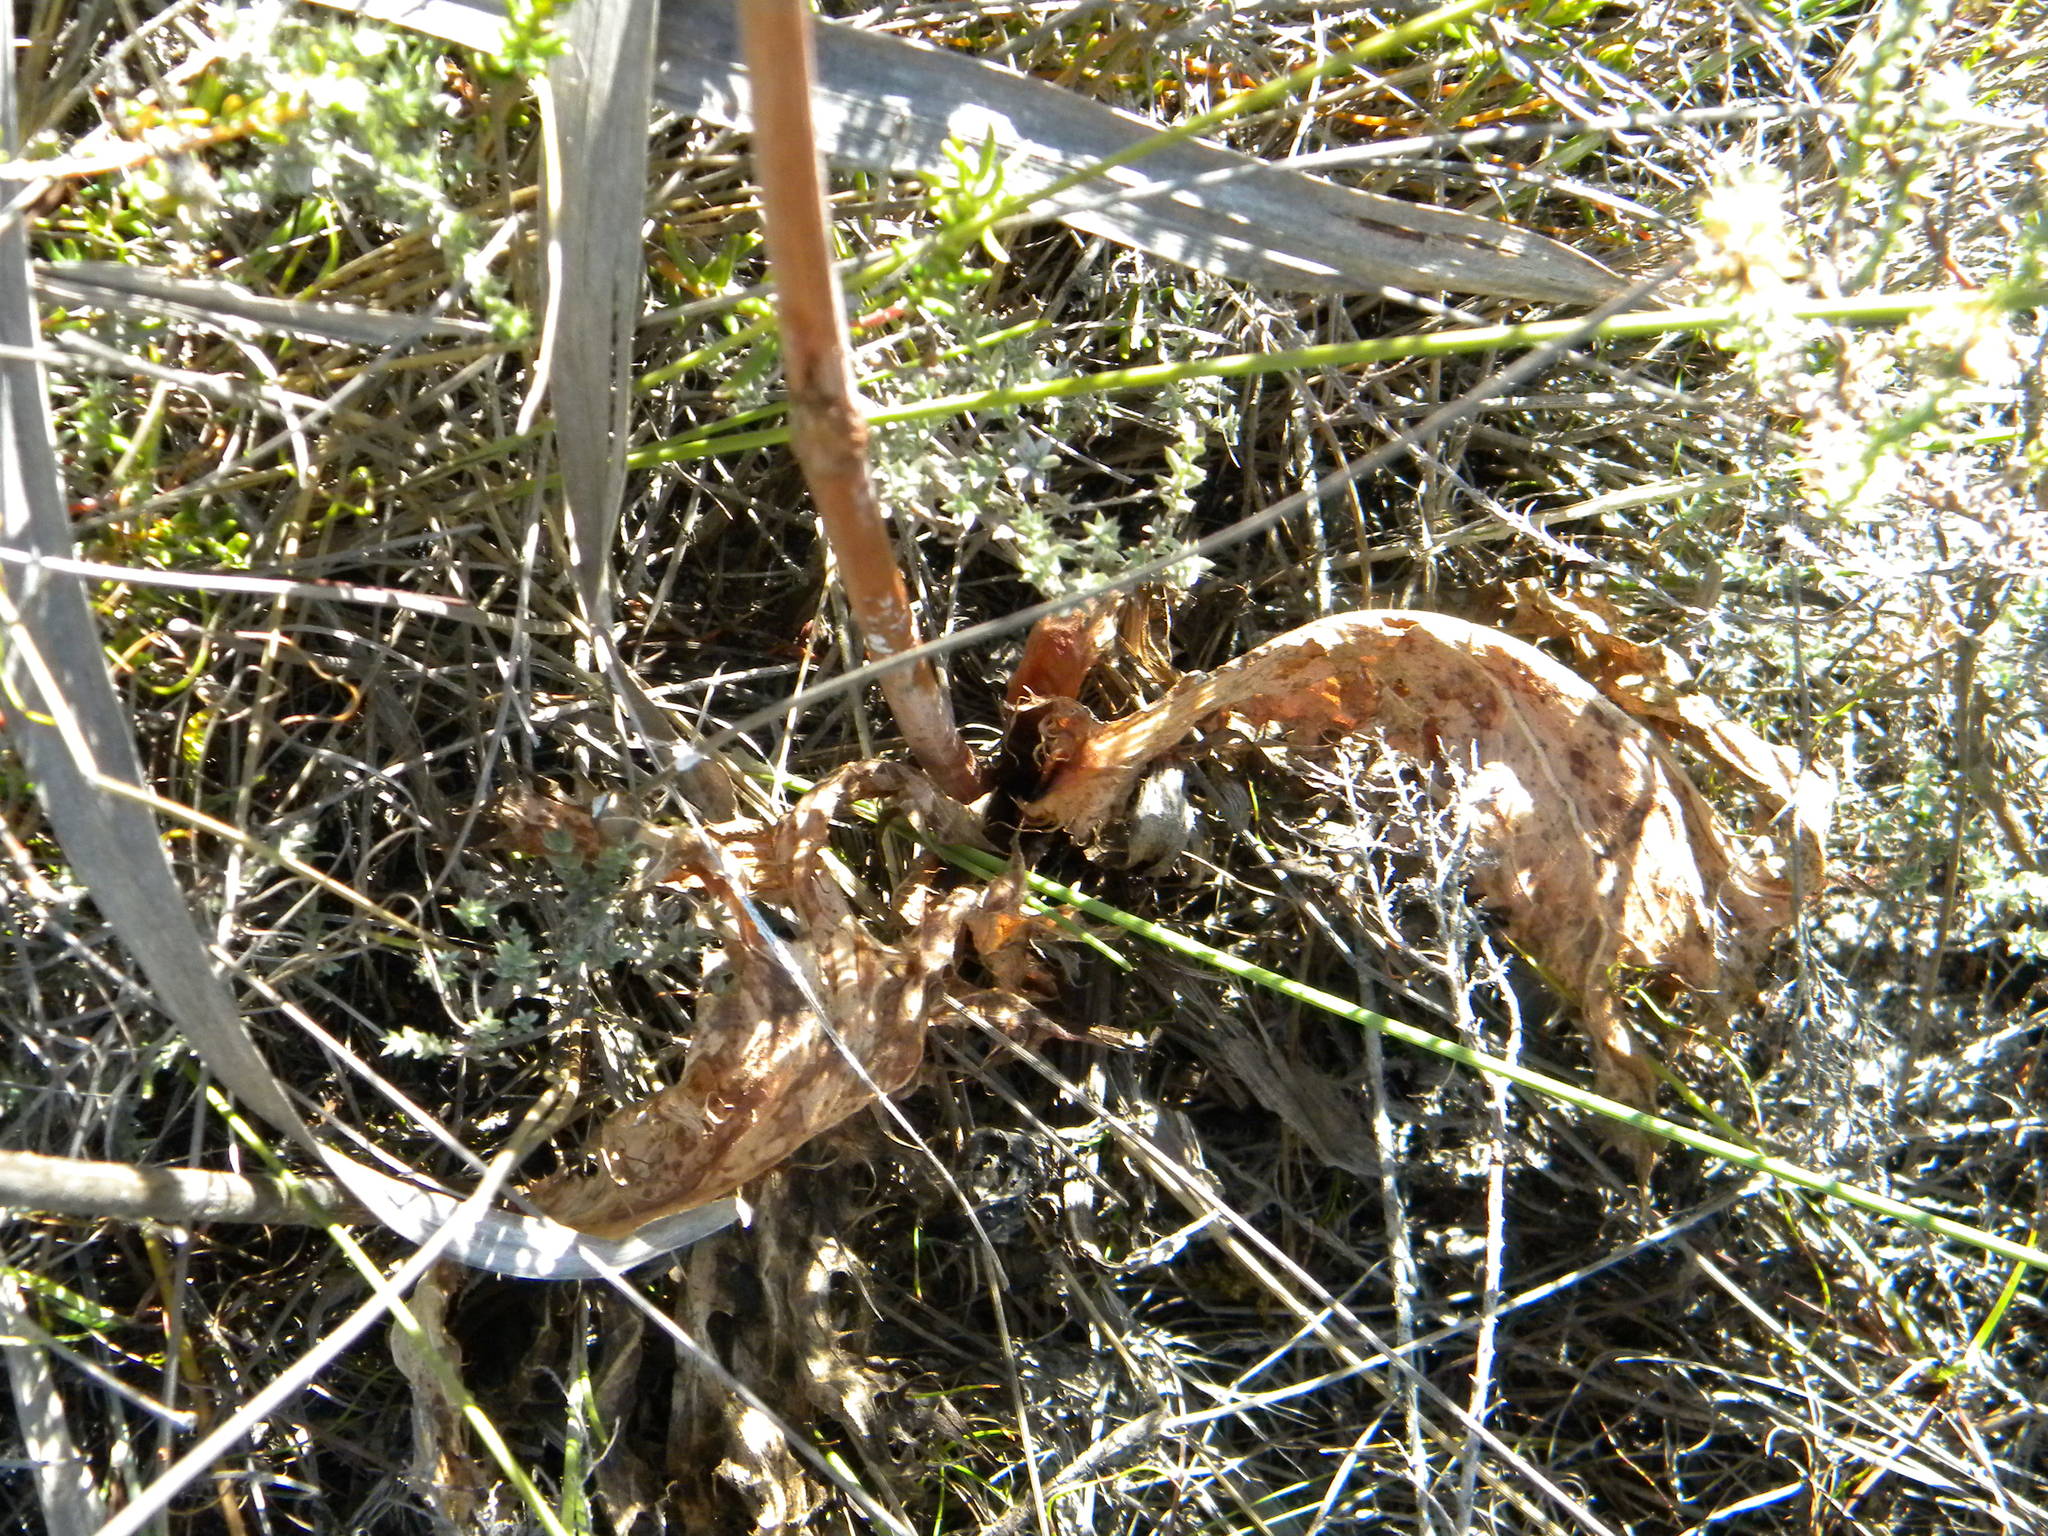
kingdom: Plantae
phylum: Tracheophyta
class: Magnoliopsida
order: Apiales
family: Apiaceae
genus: Lichtensteinia
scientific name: Lichtensteinia lacera
